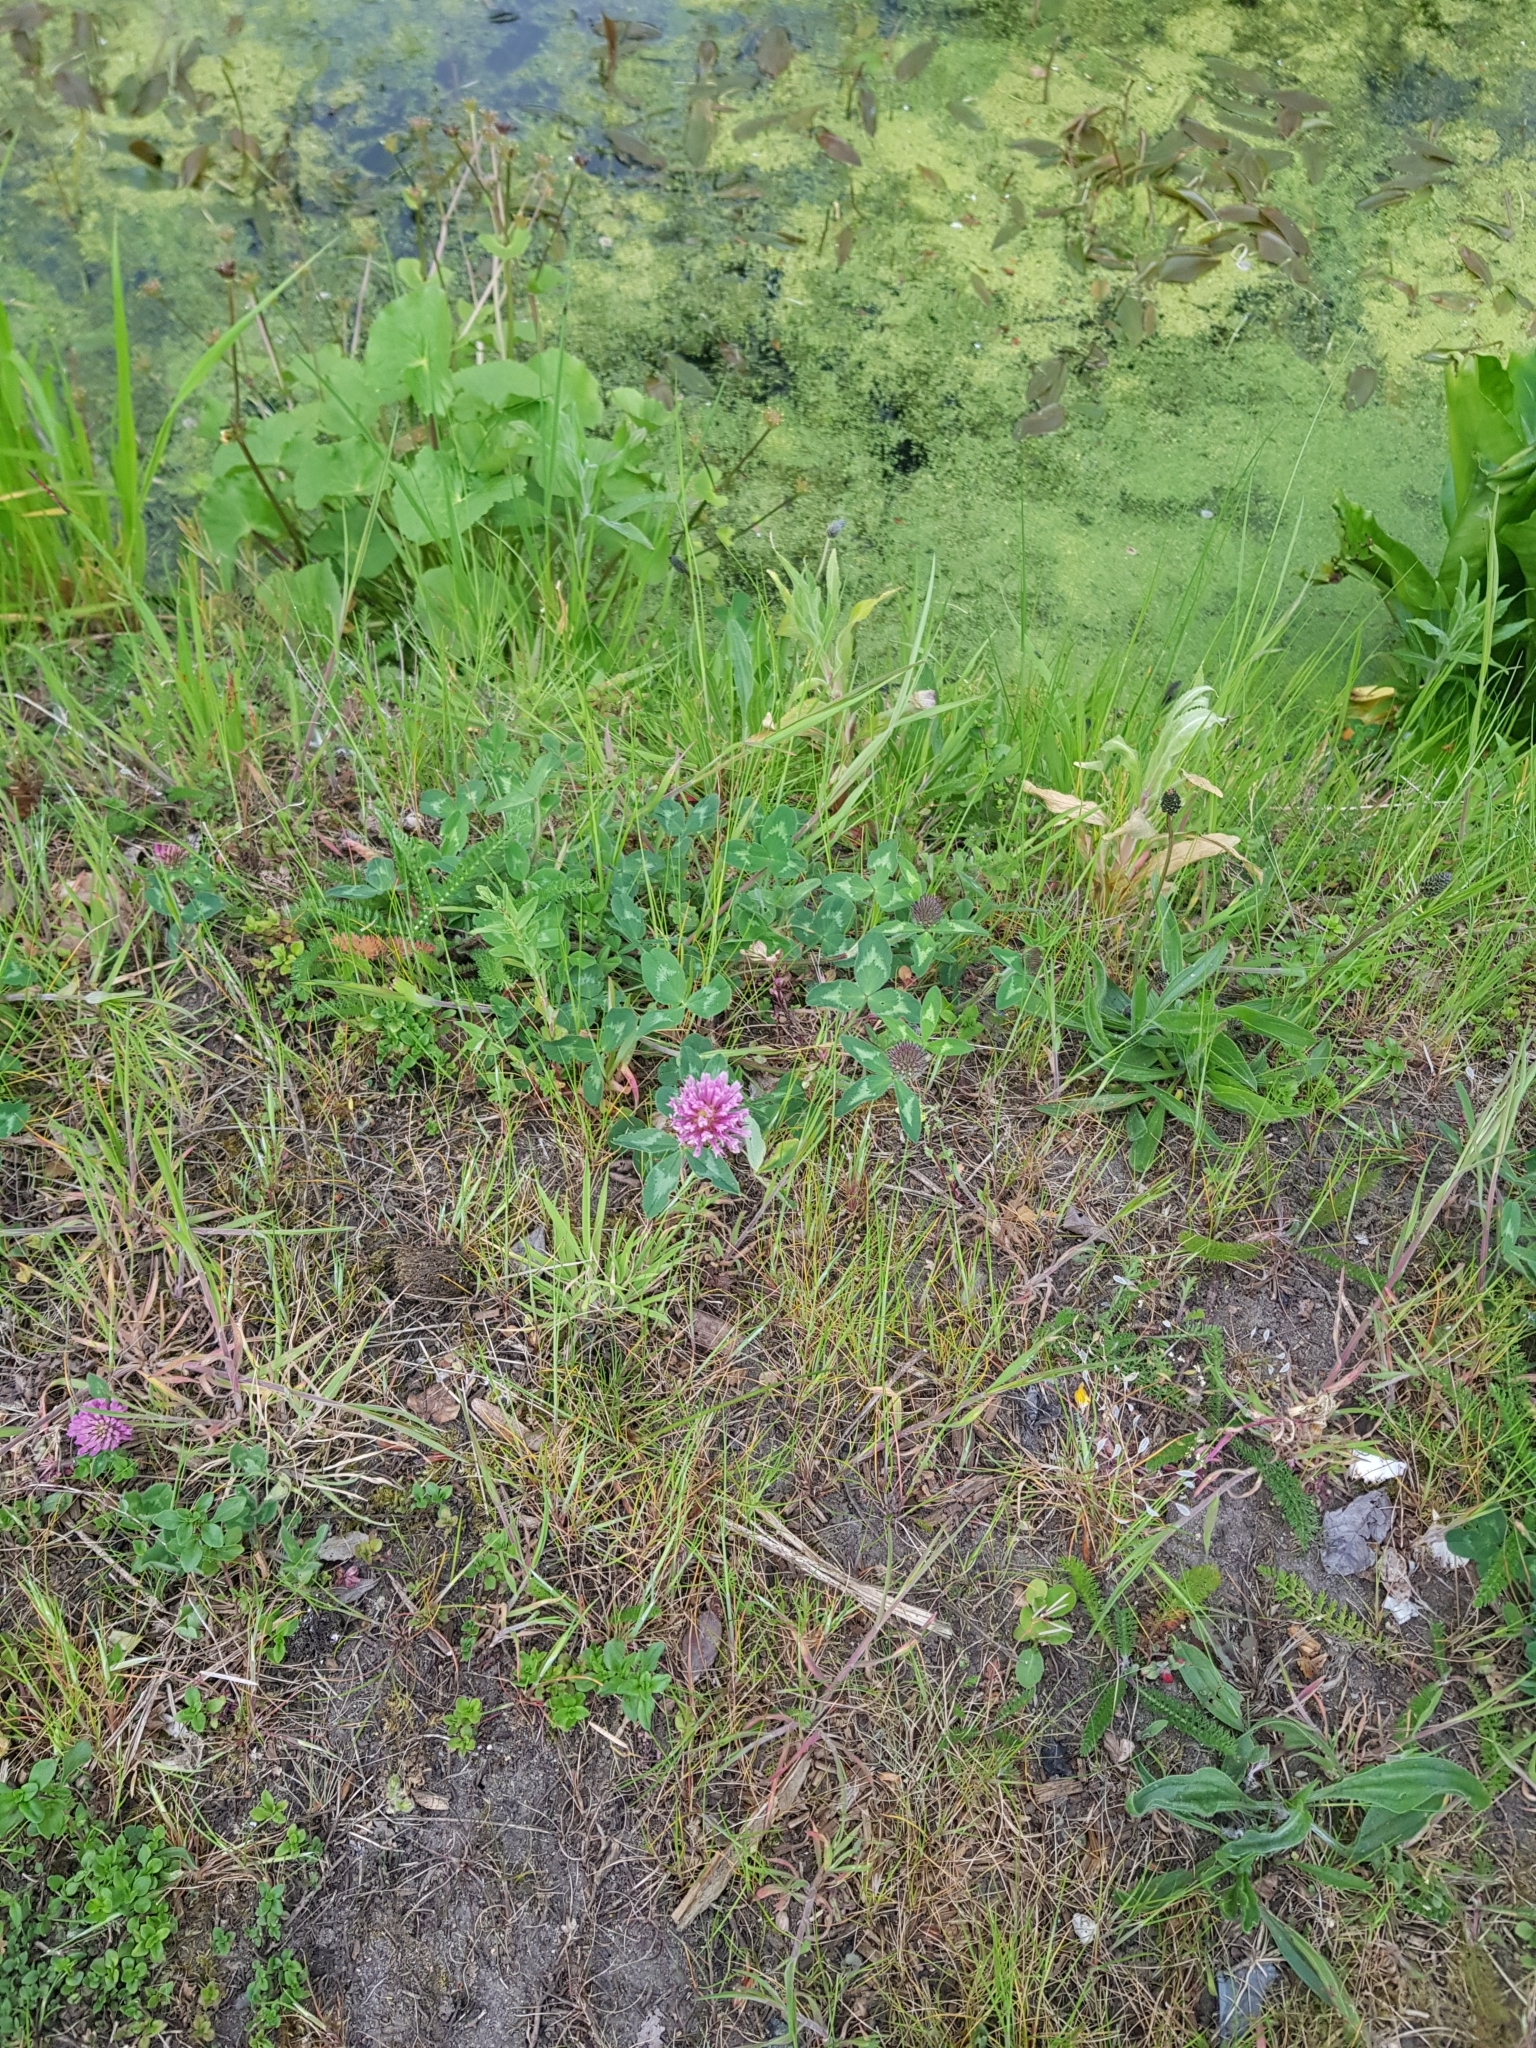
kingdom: Plantae
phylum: Tracheophyta
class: Magnoliopsida
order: Fabales
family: Fabaceae
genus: Trifolium
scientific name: Trifolium pratense
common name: Red clover
